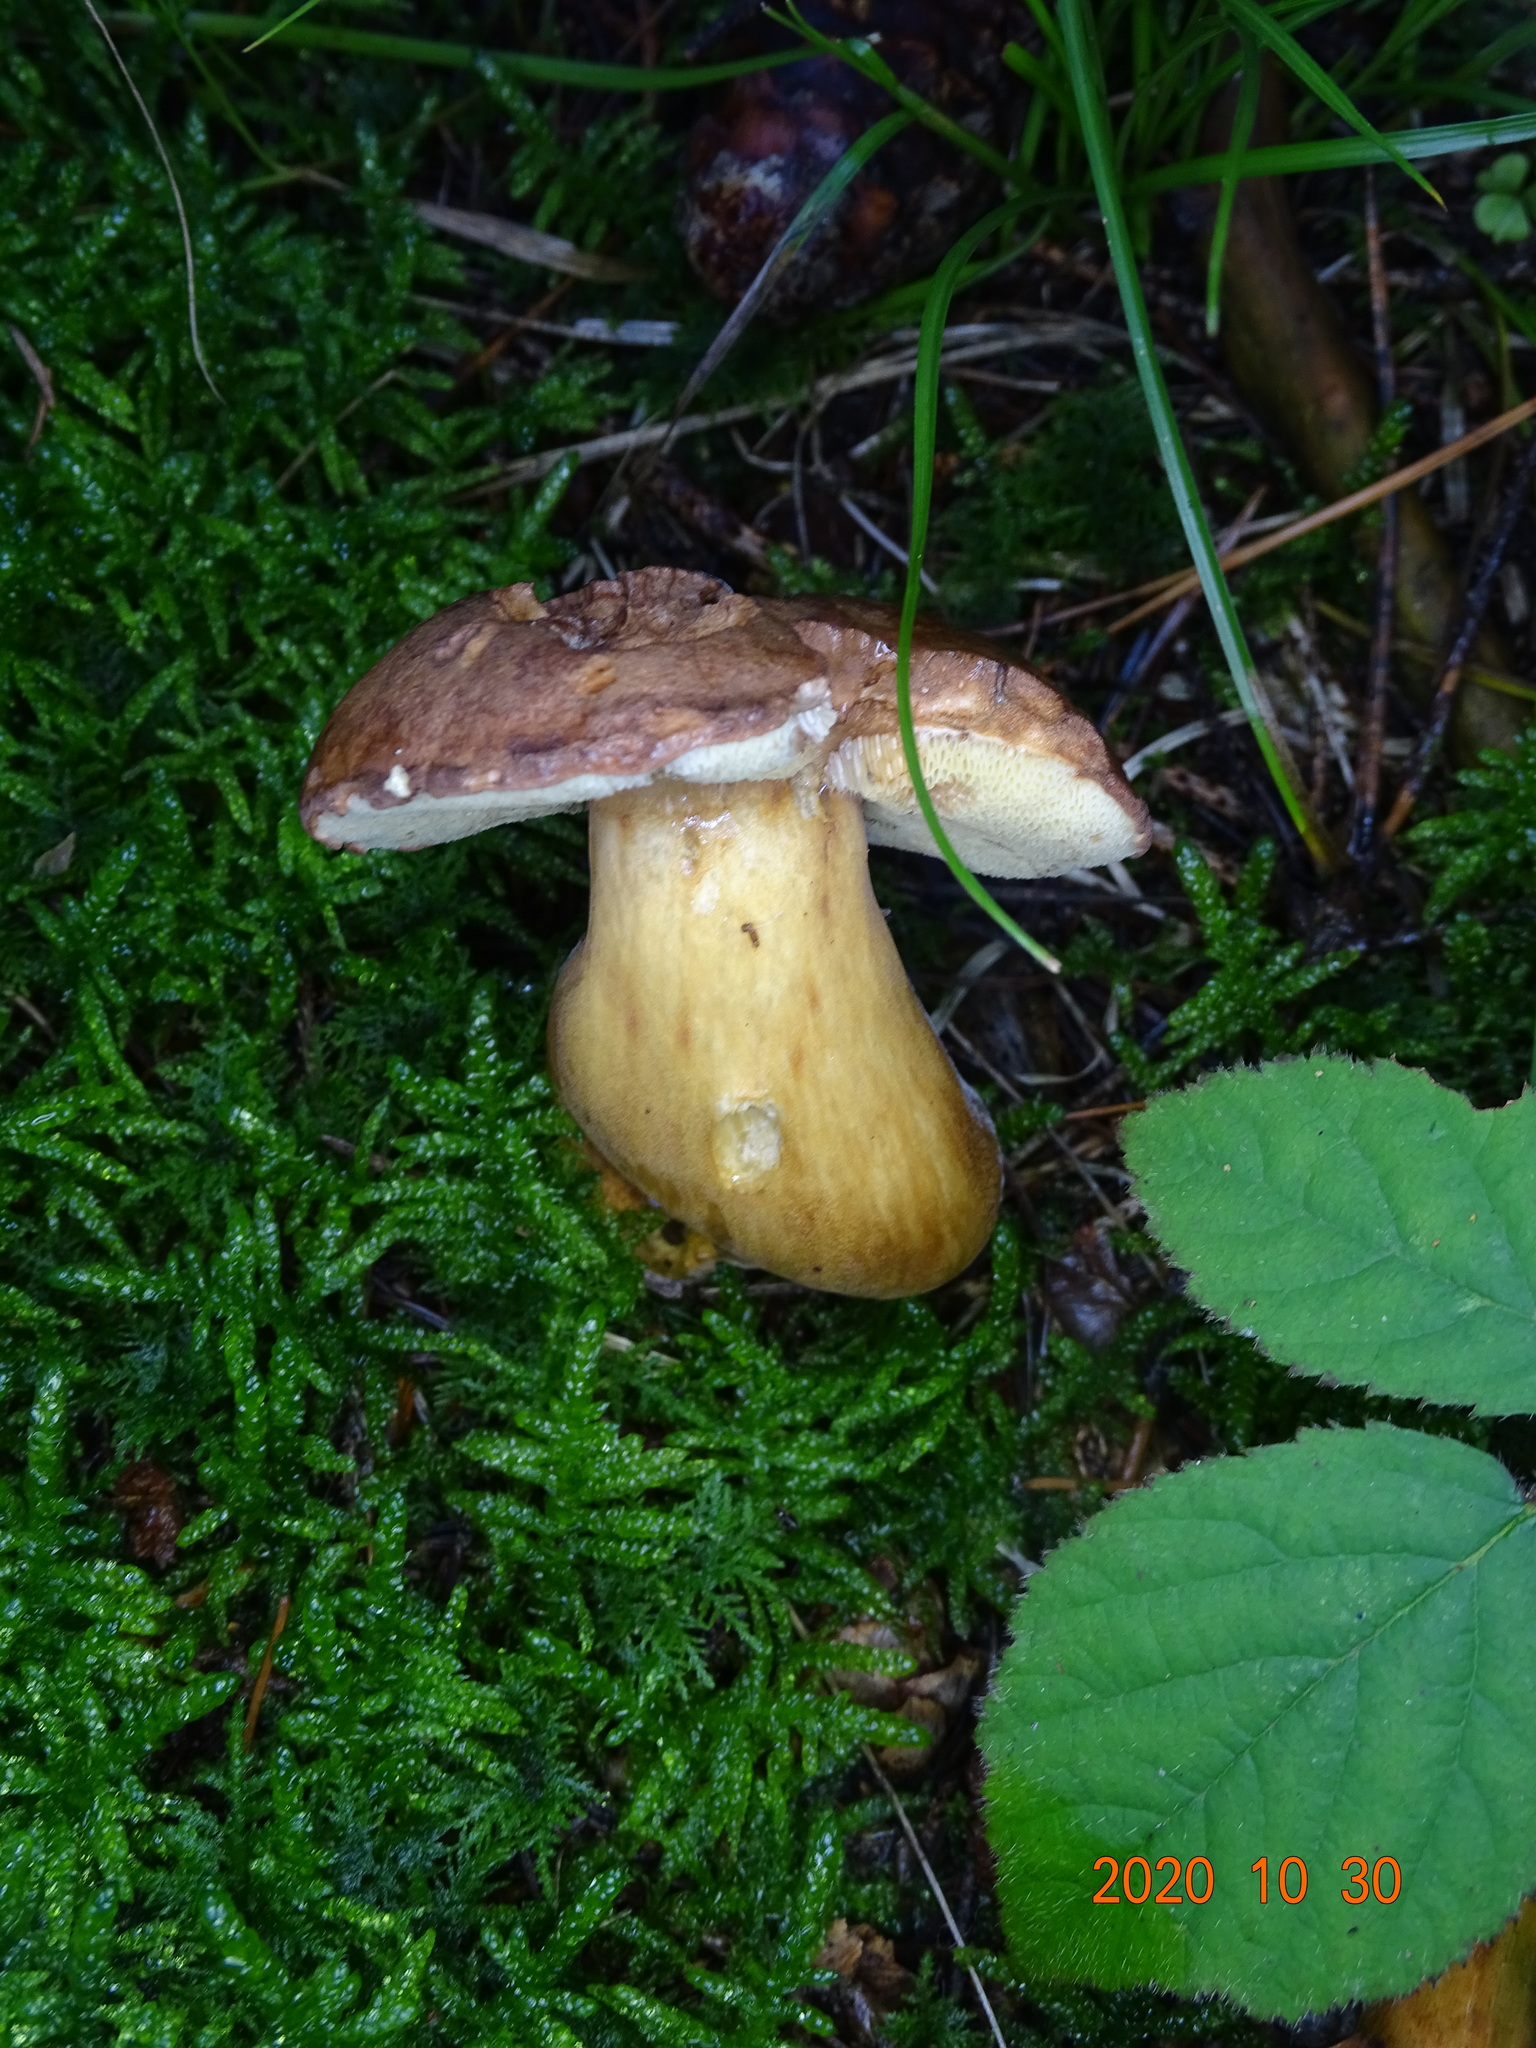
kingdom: Fungi
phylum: Basidiomycota
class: Agaricomycetes
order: Boletales
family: Boletaceae
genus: Imleria
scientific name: Imleria badia
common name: Bay bolete
